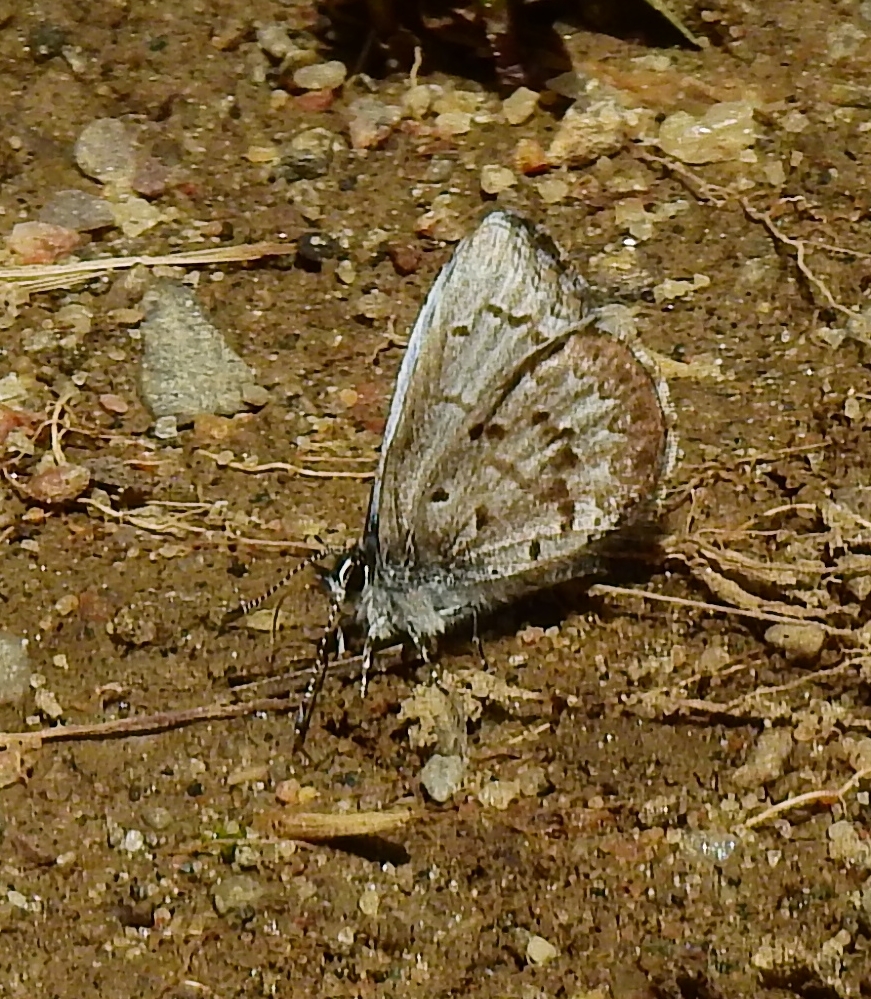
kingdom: Animalia
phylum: Arthropoda
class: Insecta
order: Lepidoptera
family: Lycaenidae
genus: Celastrina
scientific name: Celastrina lucia
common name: Lucia azure
